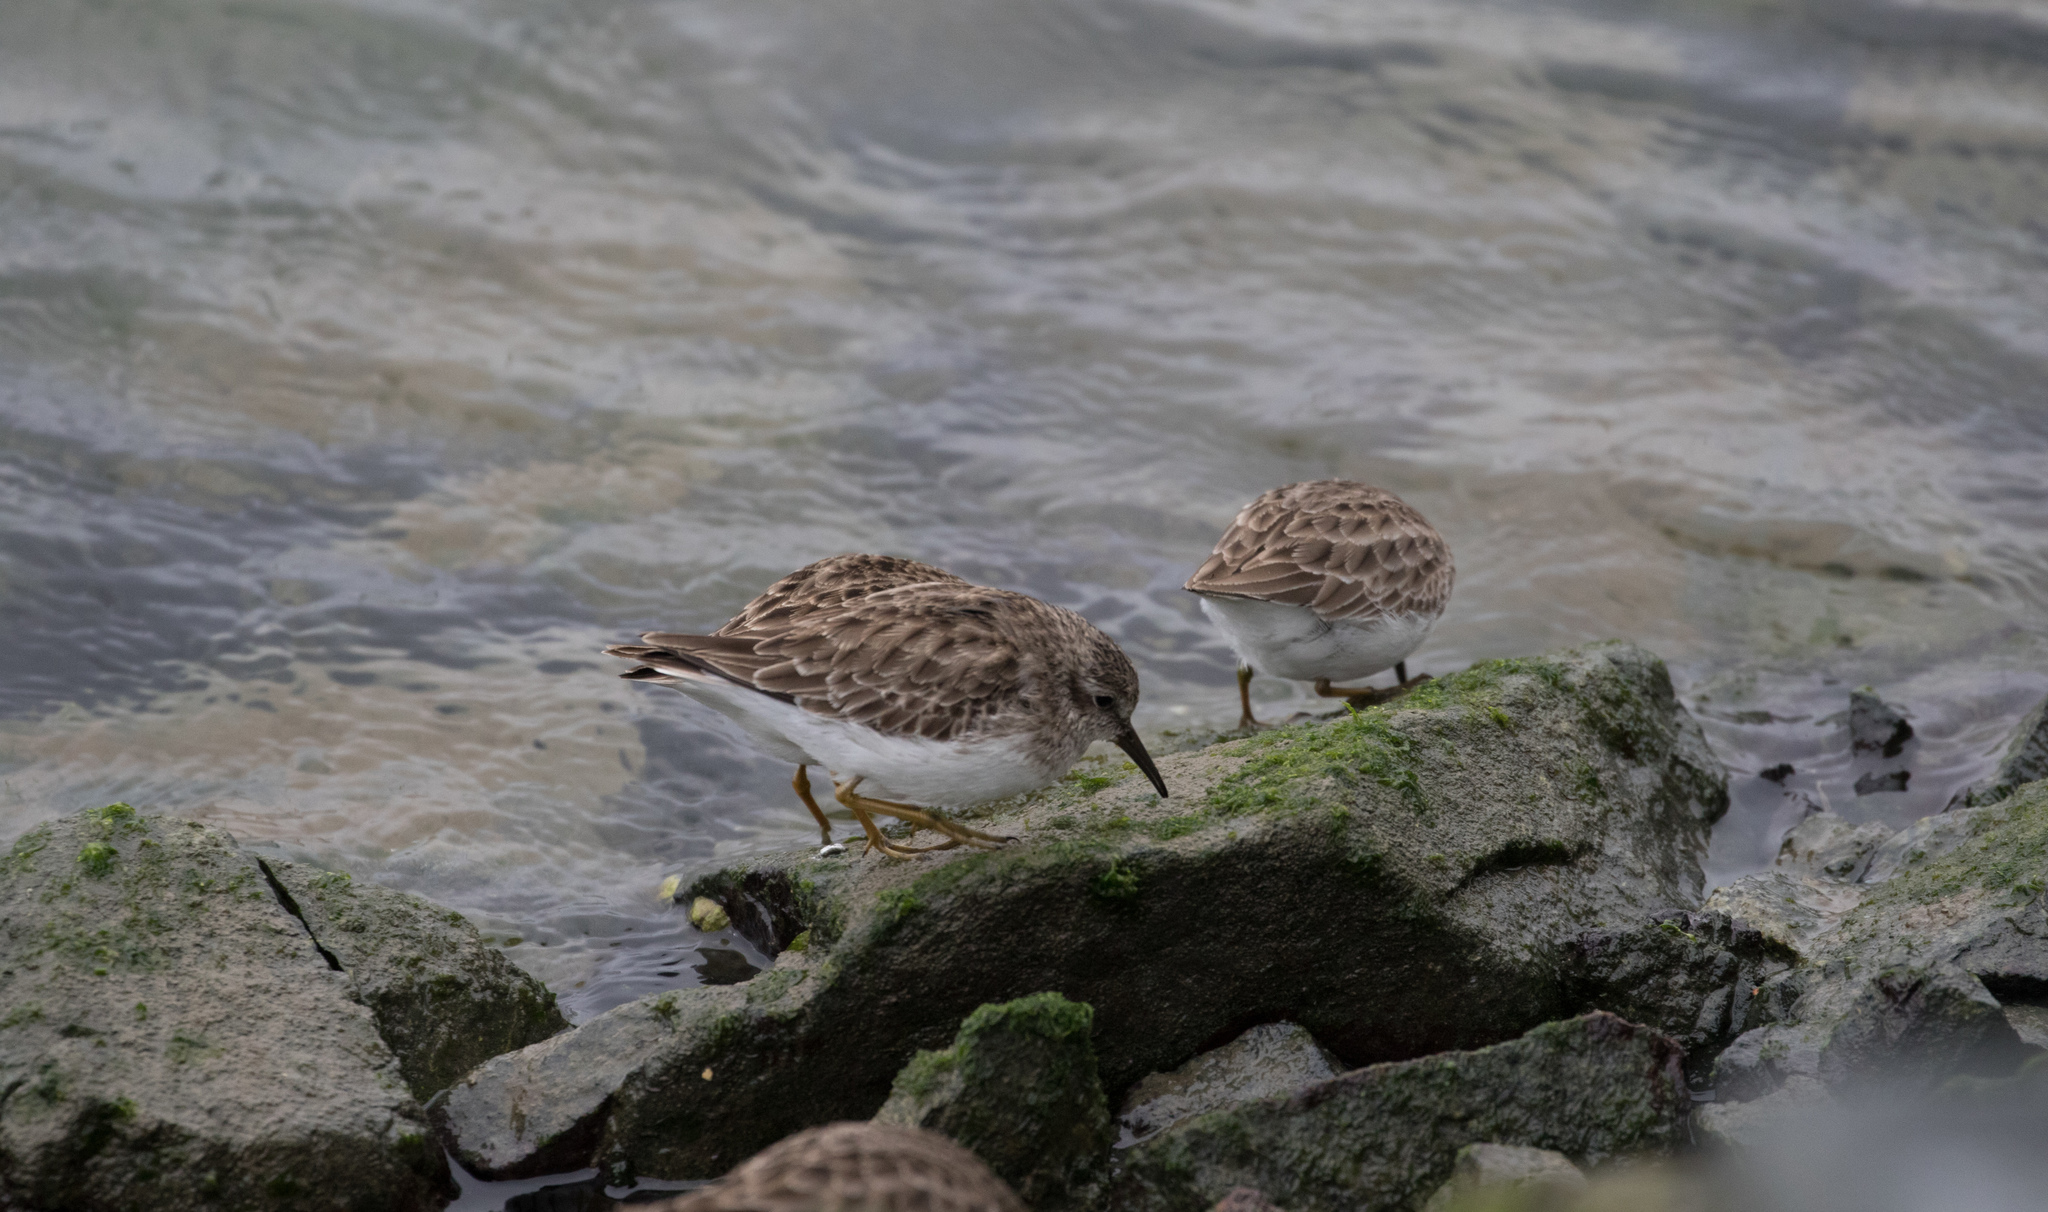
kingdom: Animalia
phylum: Chordata
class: Aves
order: Charadriiformes
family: Scolopacidae
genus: Calidris
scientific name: Calidris minutilla
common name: Least sandpiper
